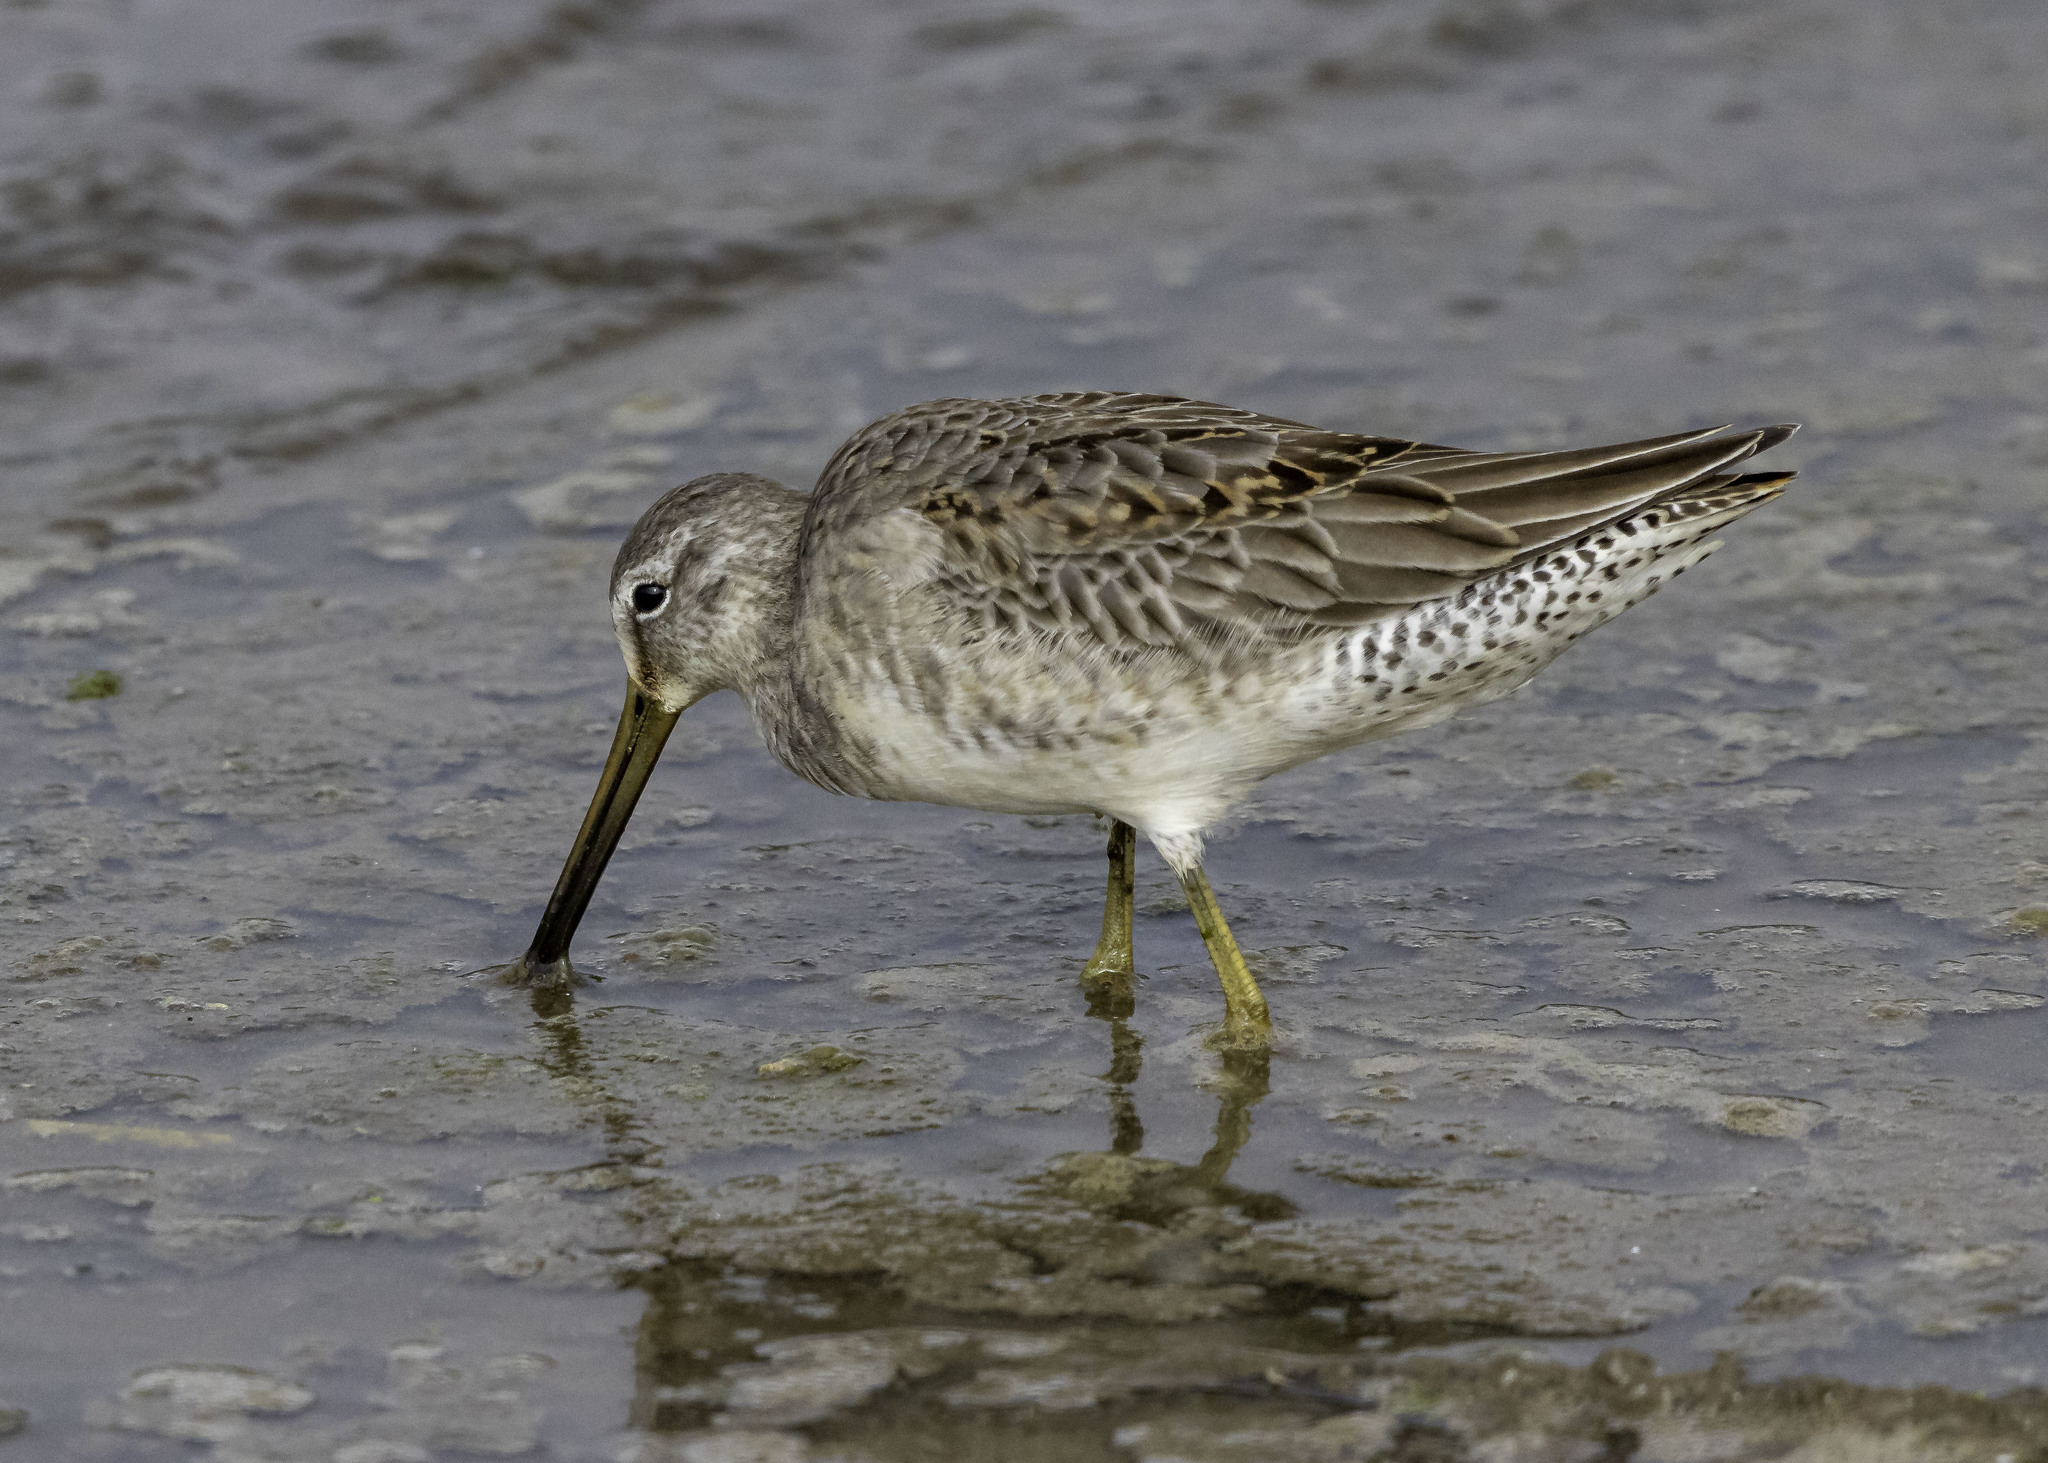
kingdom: Animalia
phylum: Chordata
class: Aves
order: Charadriiformes
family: Scolopacidae
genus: Limnodromus
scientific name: Limnodromus scolopaceus
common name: Long-billed dowitcher
